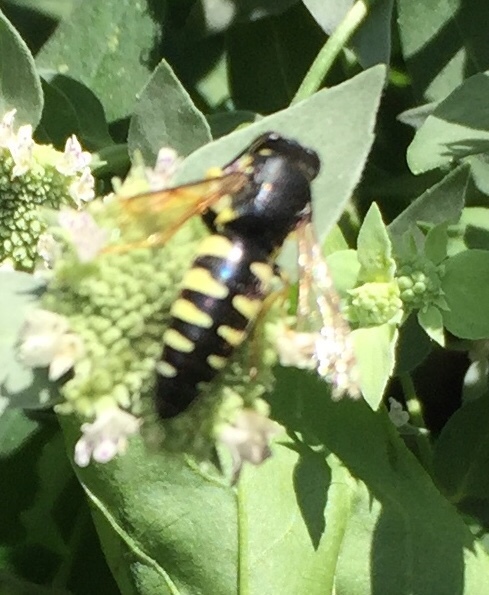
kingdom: Animalia
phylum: Arthropoda
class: Insecta
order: Hymenoptera
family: Crabronidae
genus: Bicyrtes
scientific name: Bicyrtes quadrifasciatus
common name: Four-banded stink bug hunter wasp
